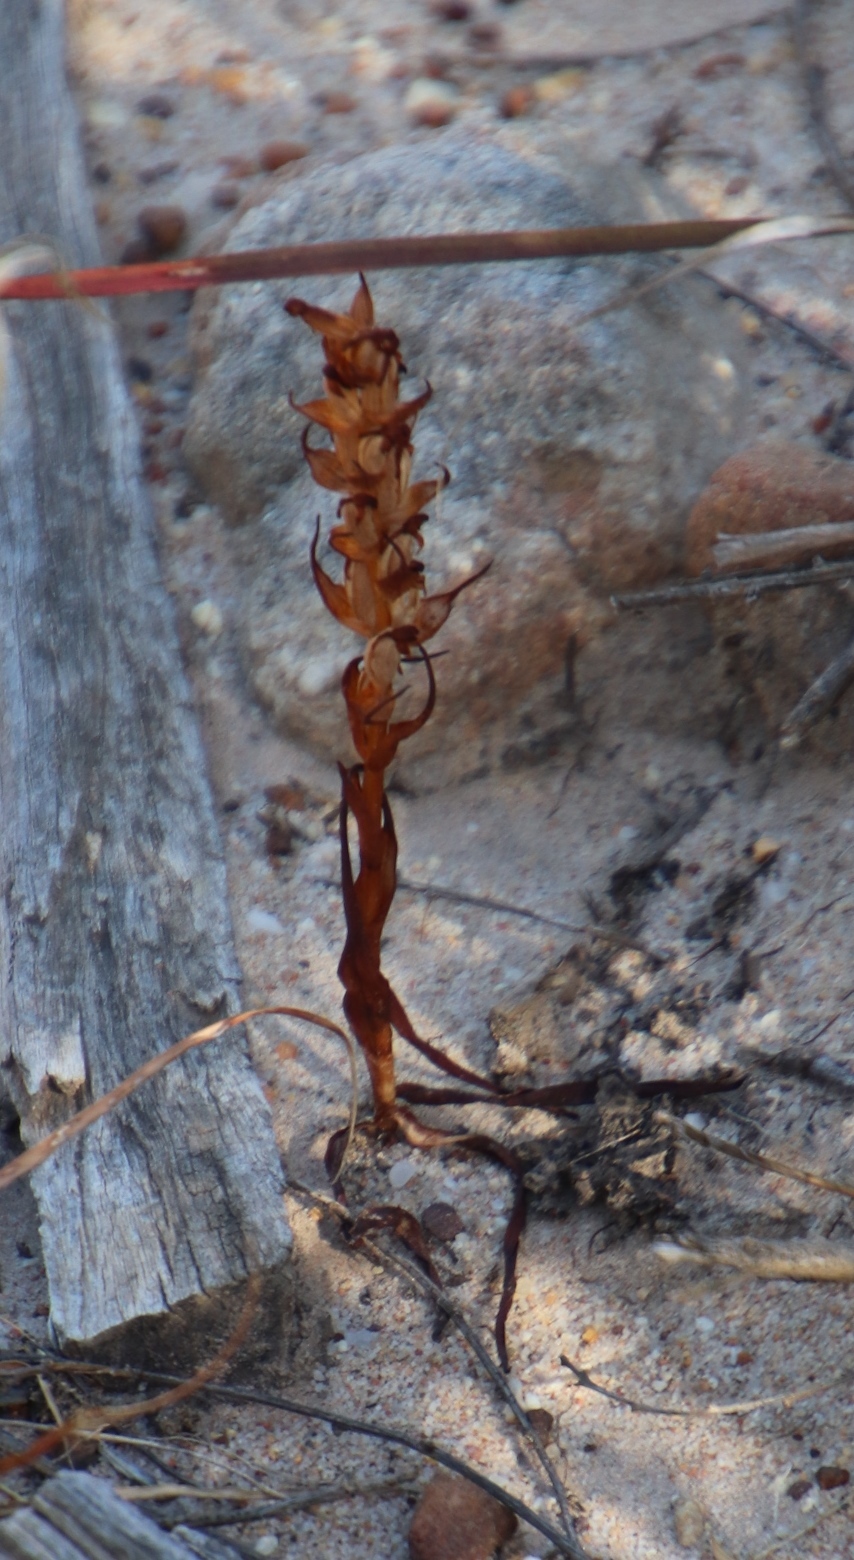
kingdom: Plantae
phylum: Tracheophyta
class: Liliopsida
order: Asparagales
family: Orchidaceae
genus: Disa
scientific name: Disa bracteata
